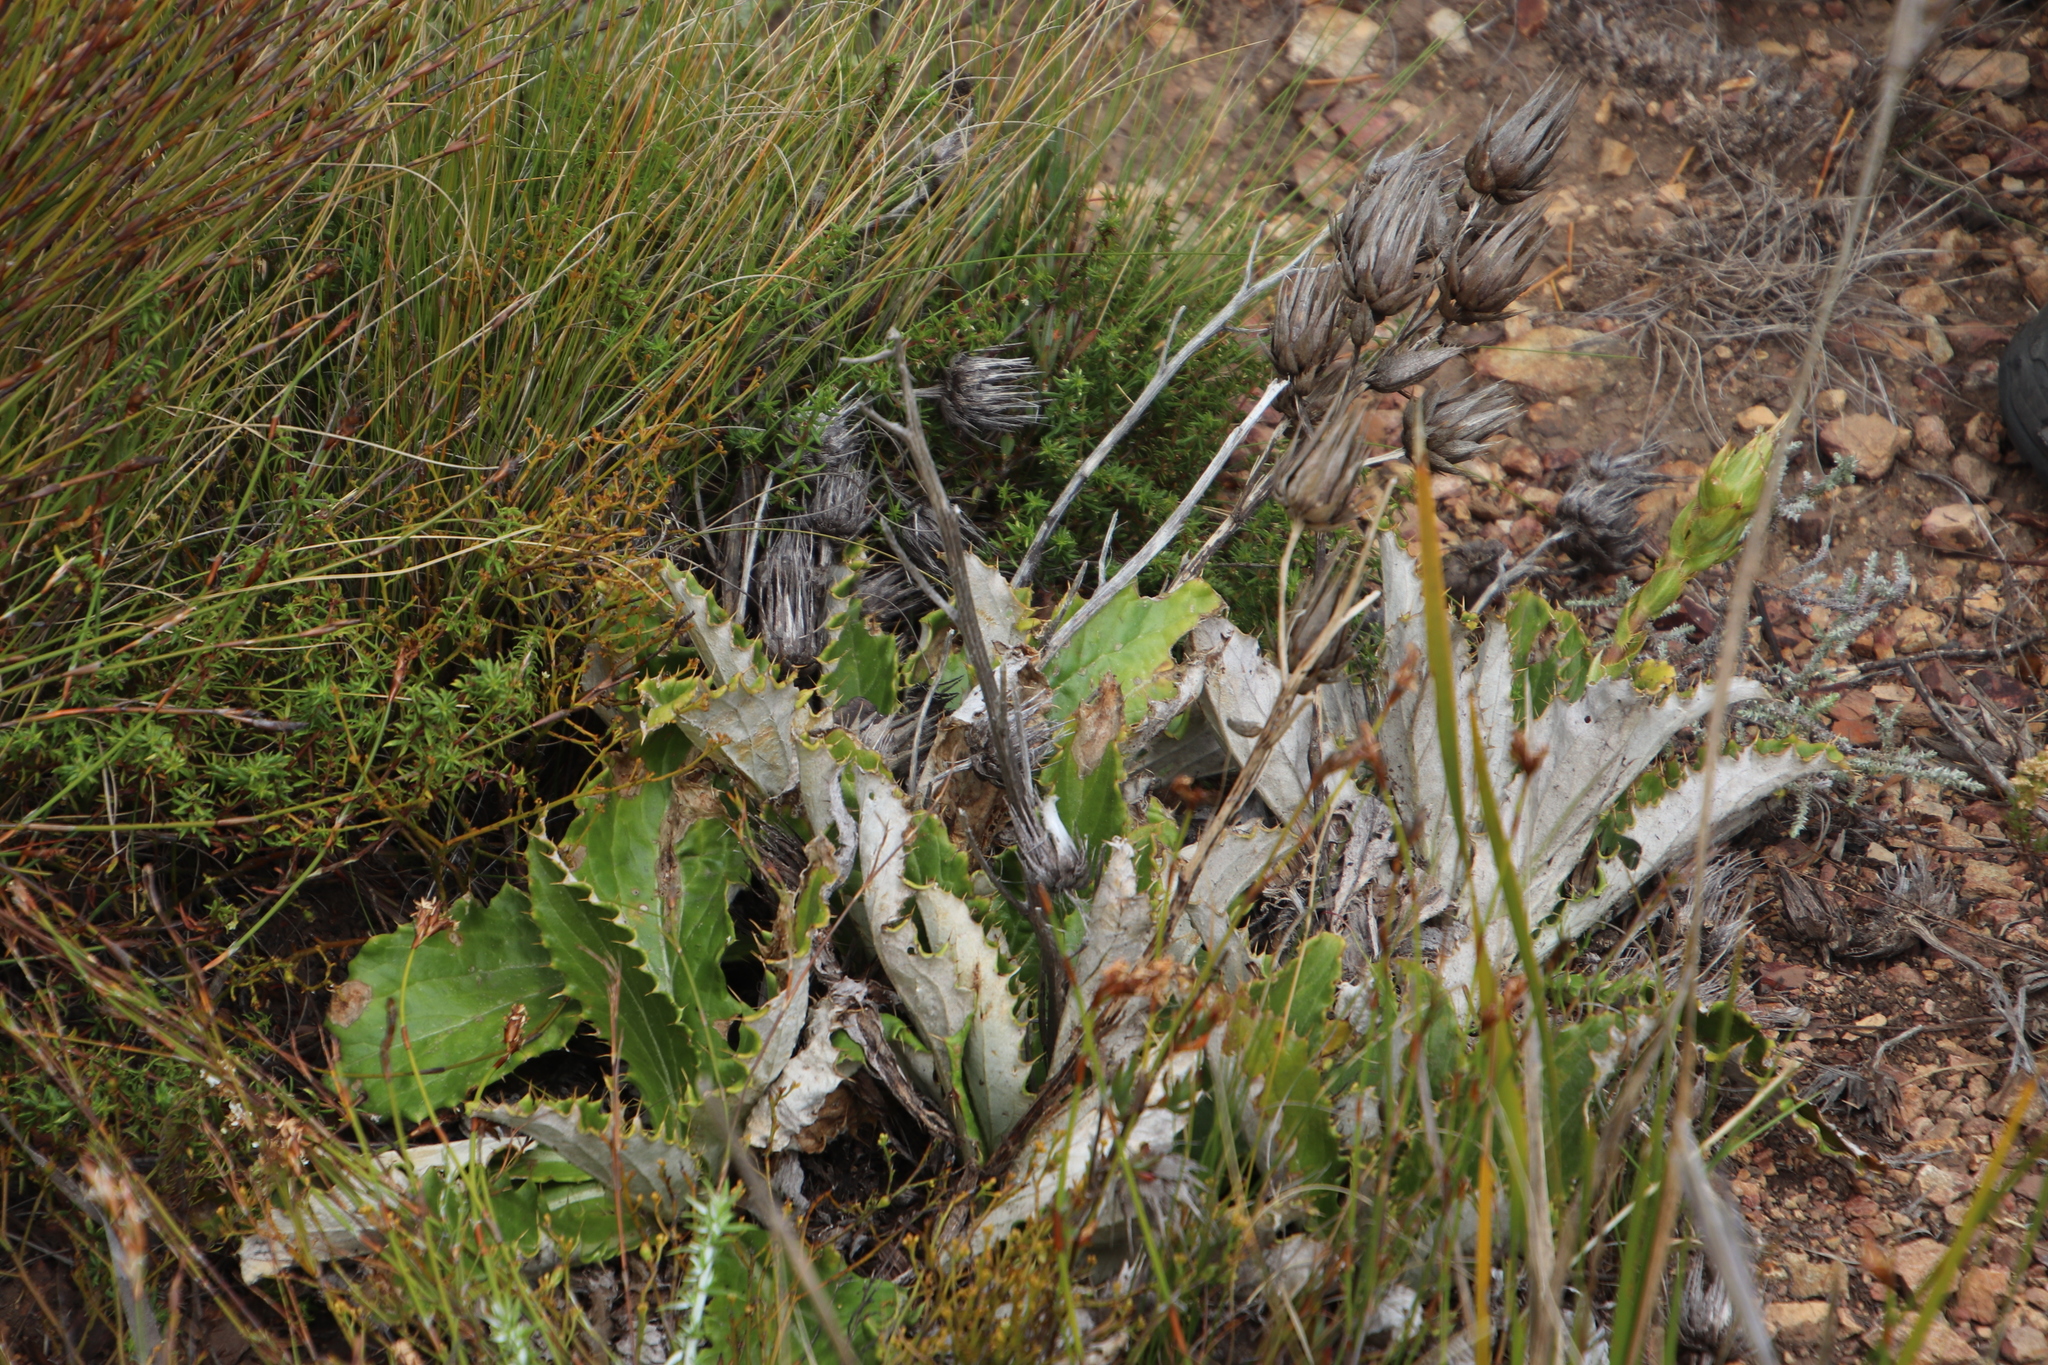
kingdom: Plantae
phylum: Tracheophyta
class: Magnoliopsida
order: Asterales
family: Asteraceae
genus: Berkheya
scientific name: Berkheya armata
